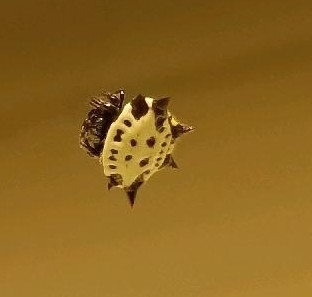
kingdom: Animalia
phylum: Arthropoda
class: Arachnida
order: Araneae
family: Araneidae
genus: Gasteracantha
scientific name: Gasteracantha cancriformis
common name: Orb weavers
